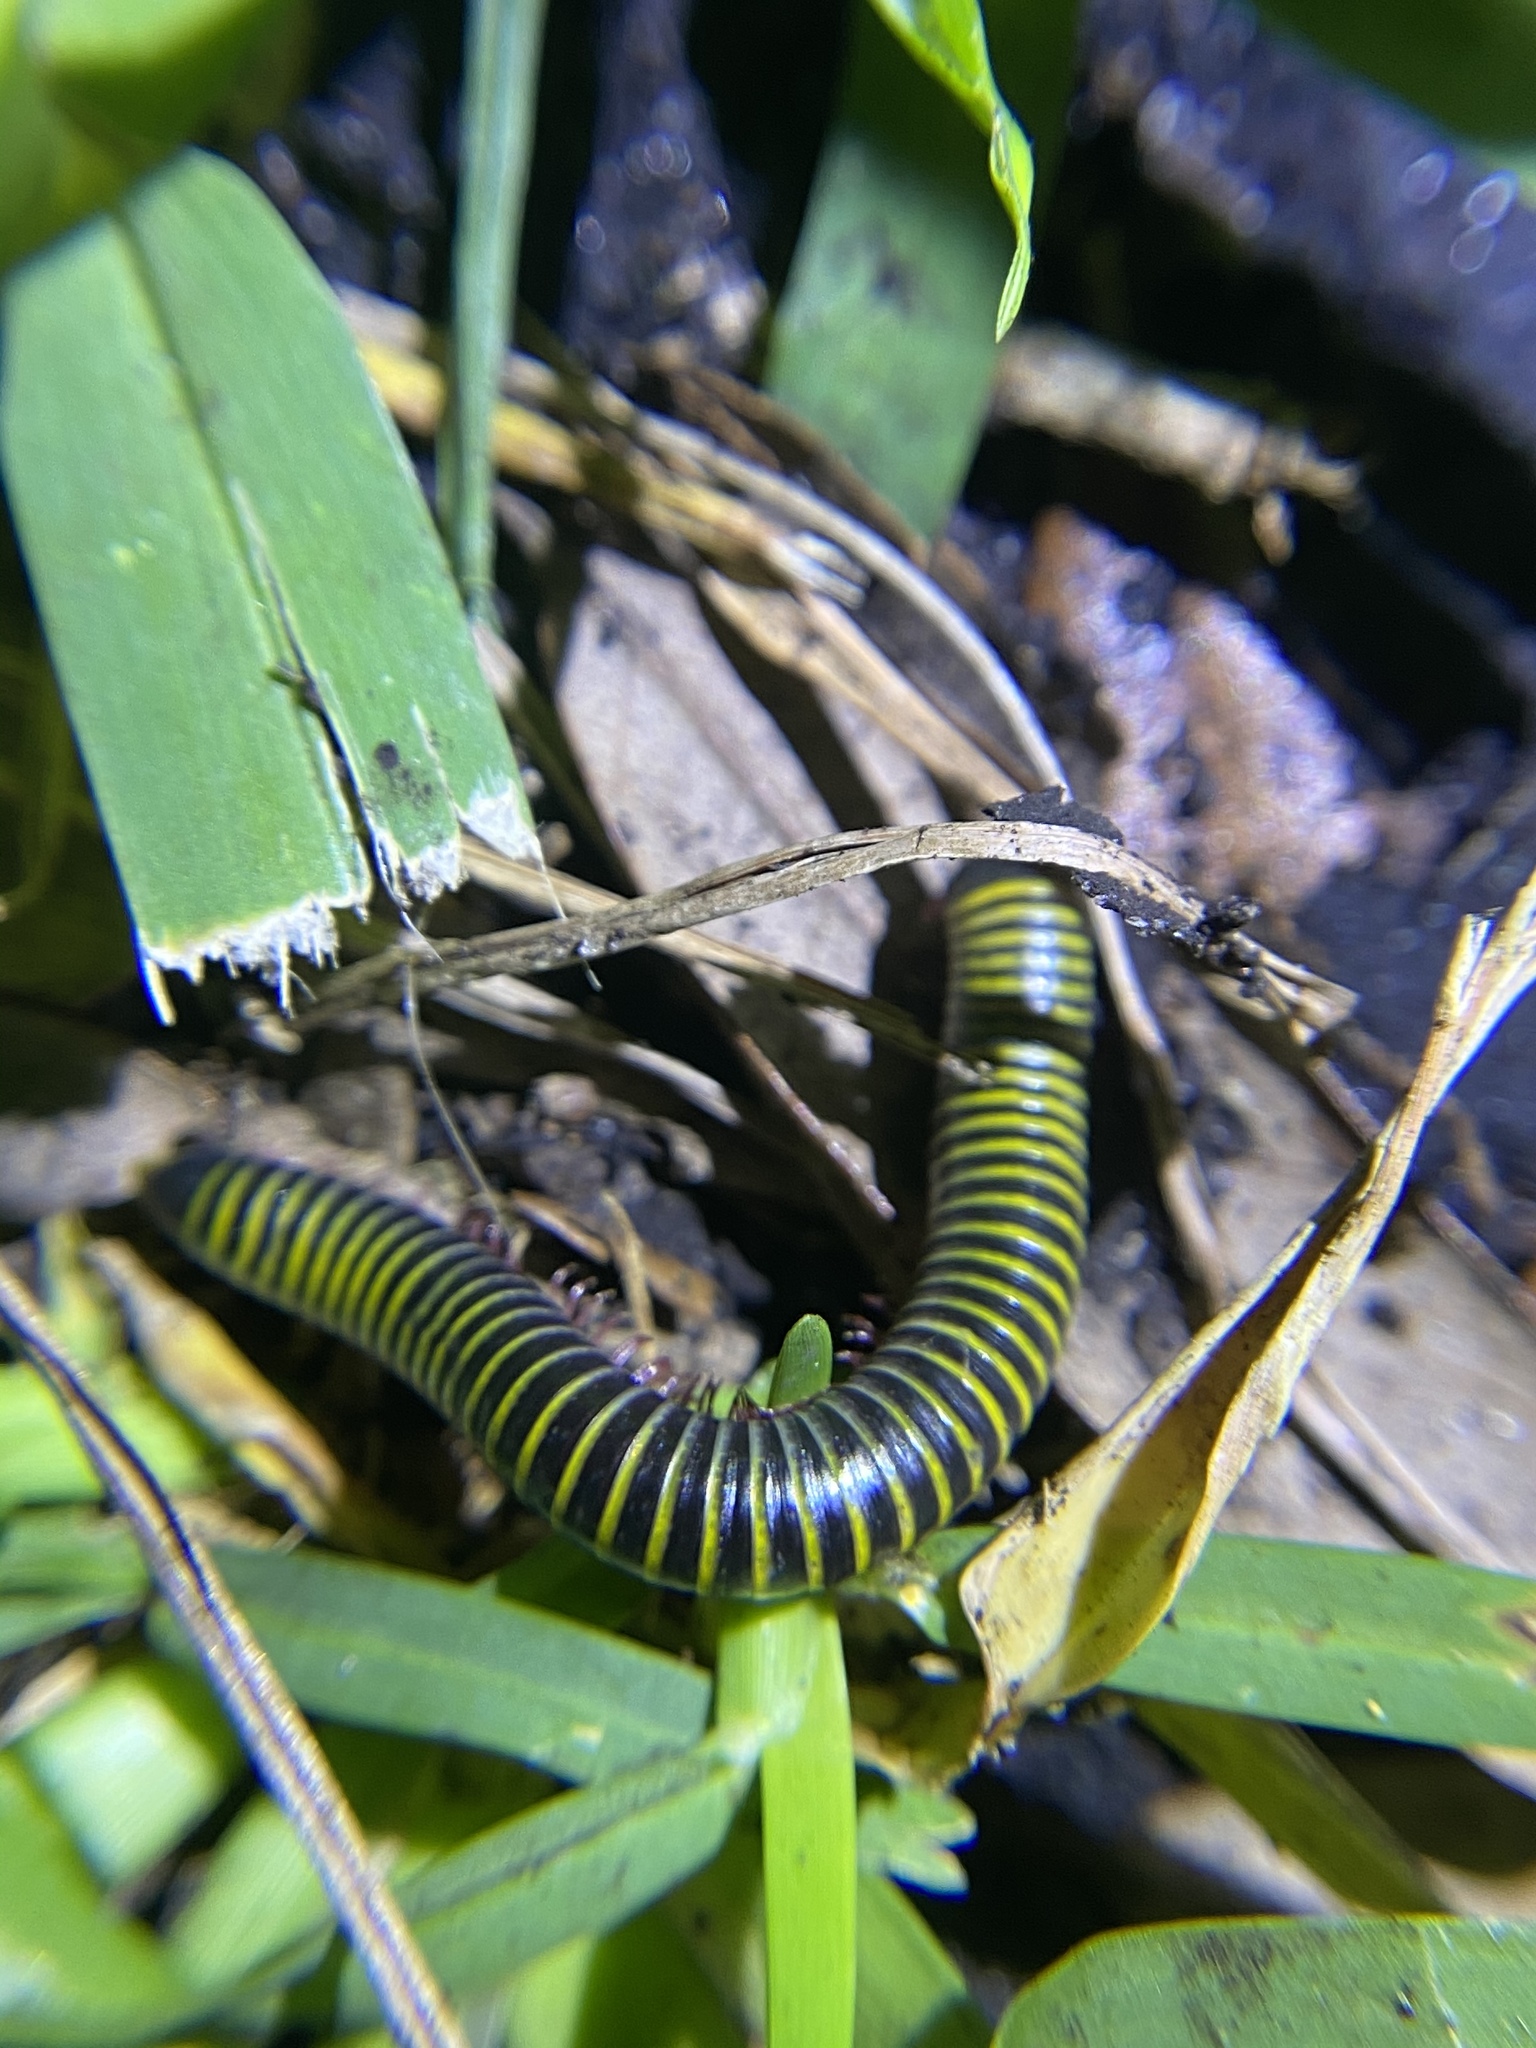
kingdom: Animalia
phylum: Arthropoda
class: Diplopoda
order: Spirobolida
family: Rhinocricidae
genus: Anadenobolus
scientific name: Anadenobolus monilicornis
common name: Caribbean millipede
